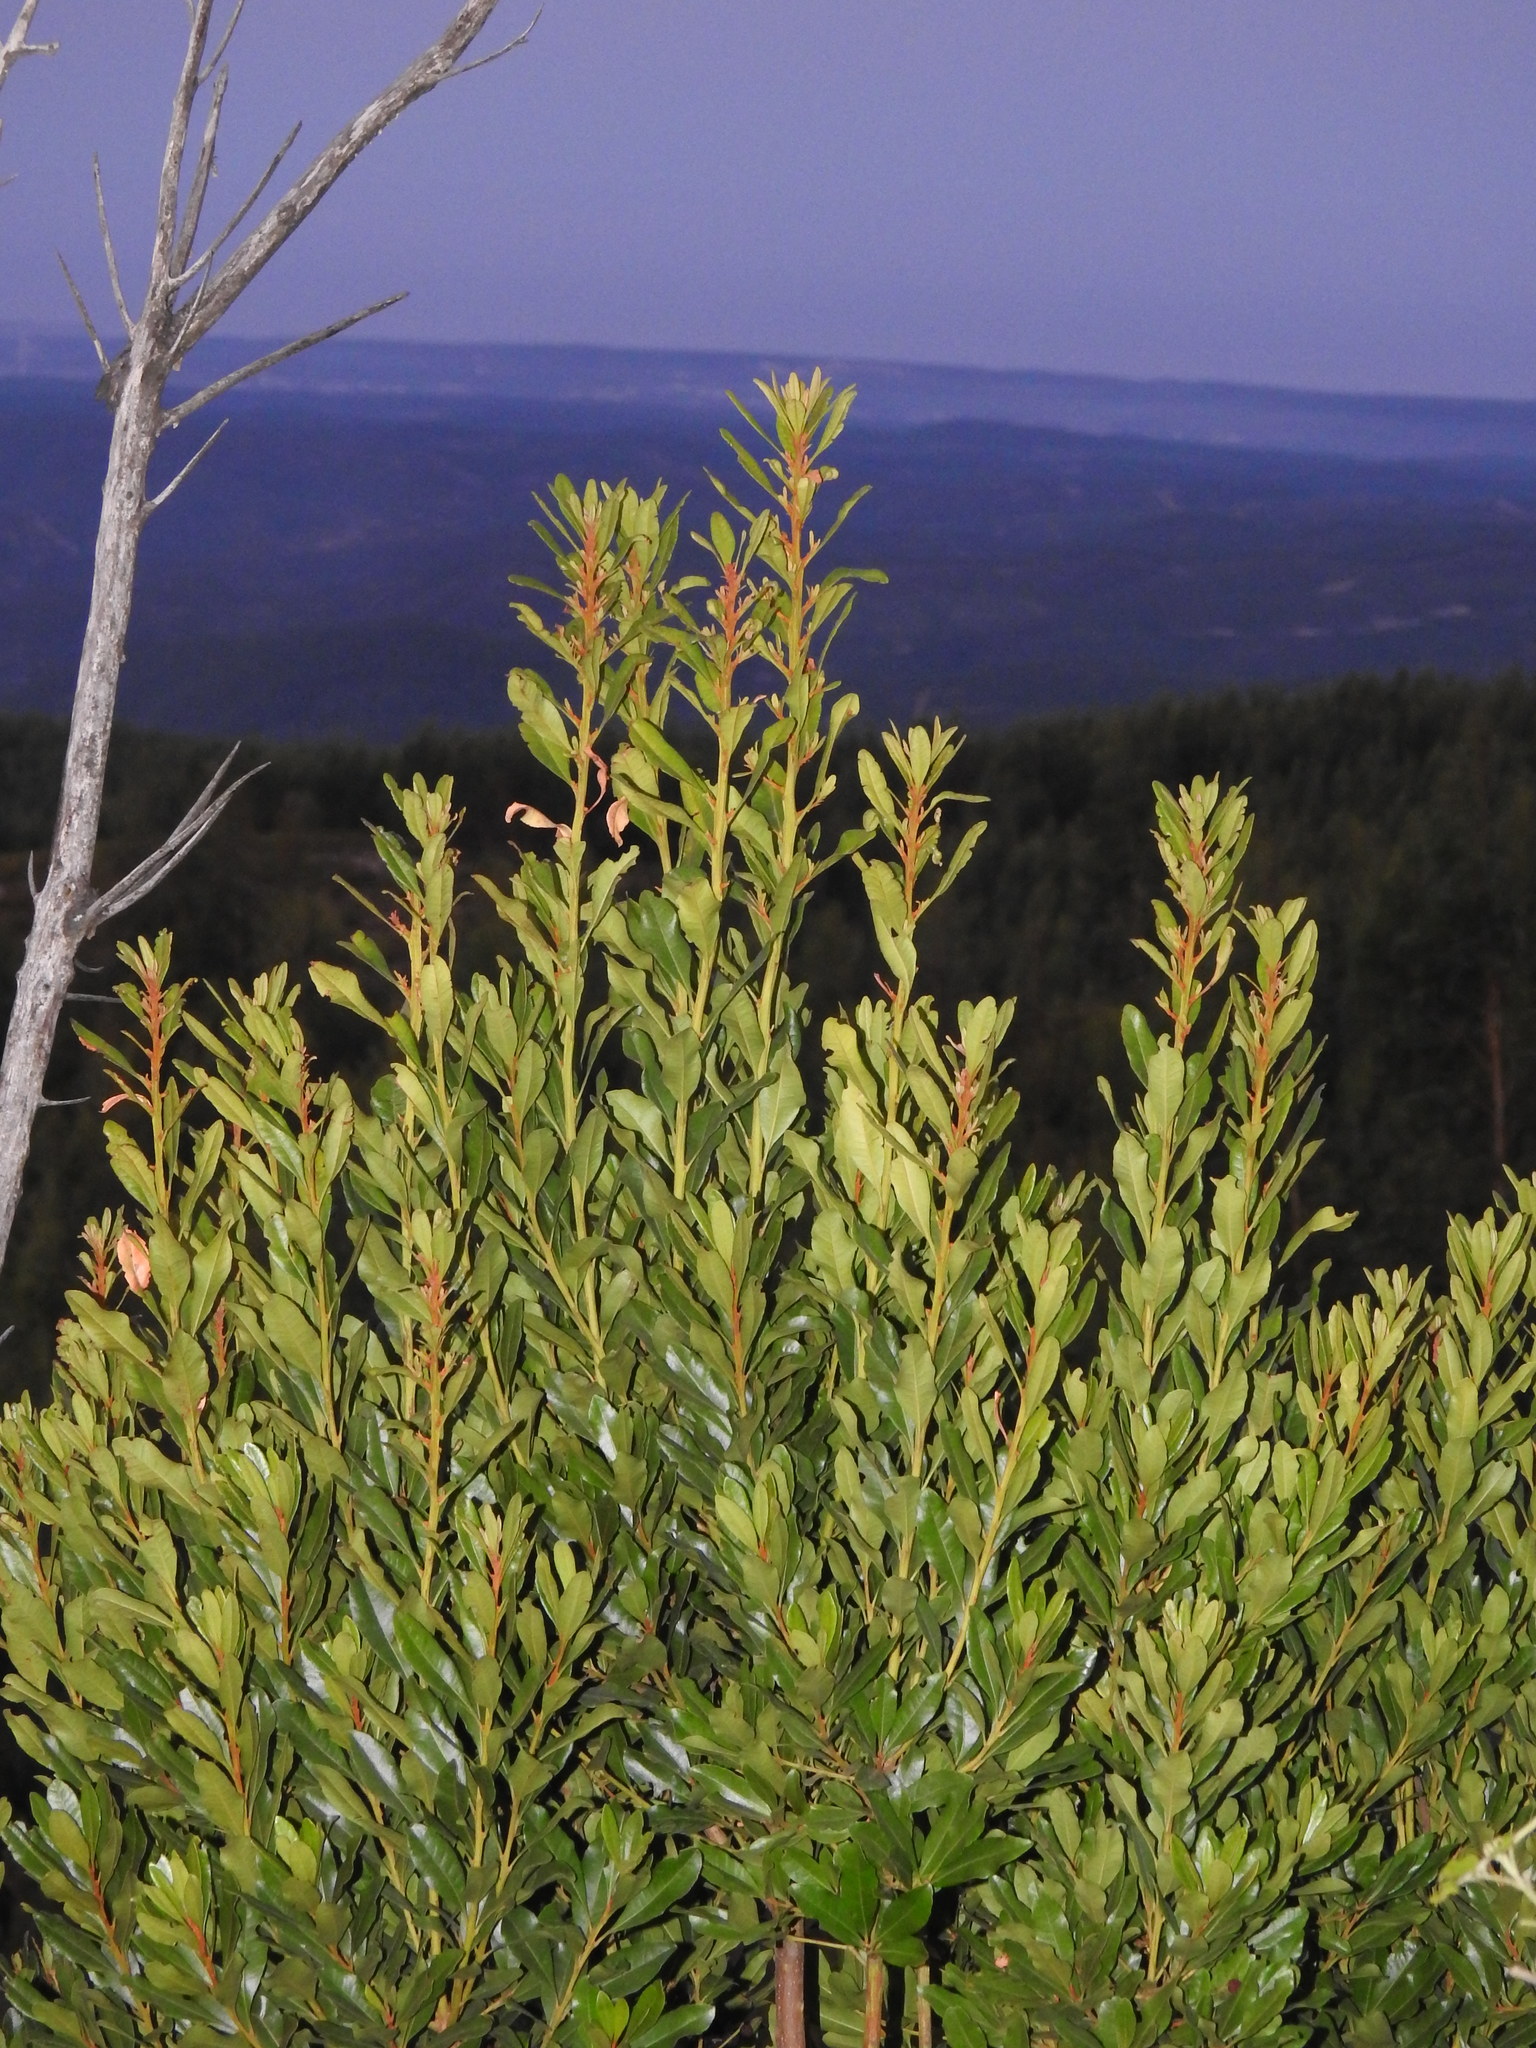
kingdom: Plantae
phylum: Tracheophyta
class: Magnoliopsida
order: Fagales
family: Myricaceae
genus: Morella
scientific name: Morella faya
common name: Firetree
